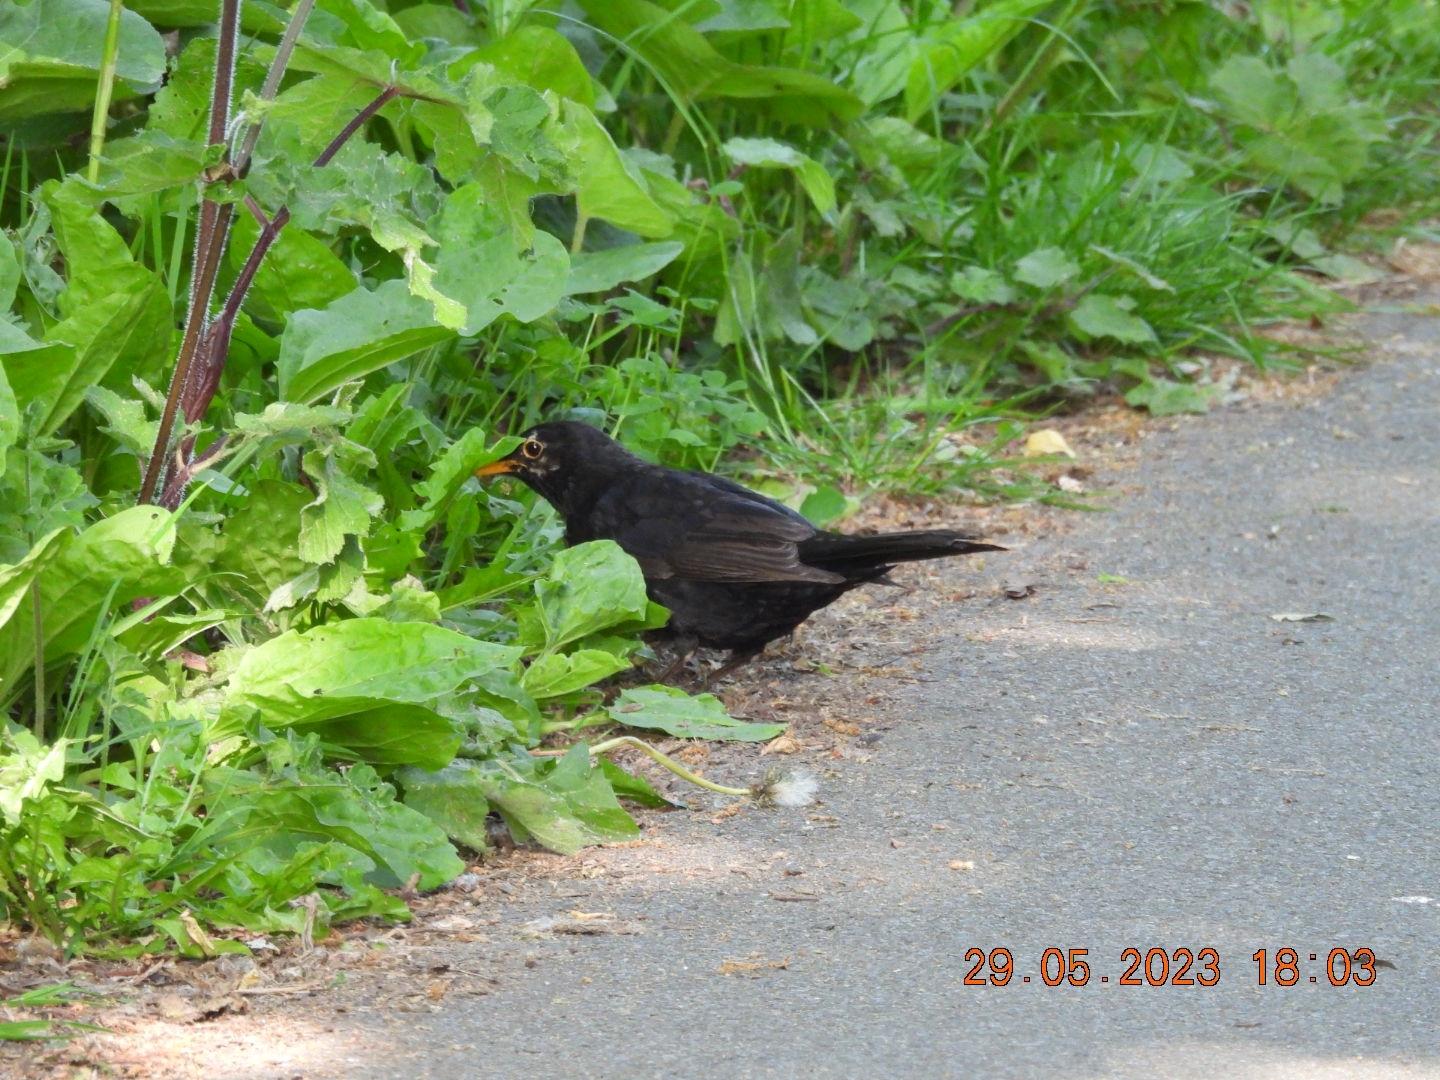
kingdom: Animalia
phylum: Chordata
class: Aves
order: Passeriformes
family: Turdidae
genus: Turdus
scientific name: Turdus merula
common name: Common blackbird
